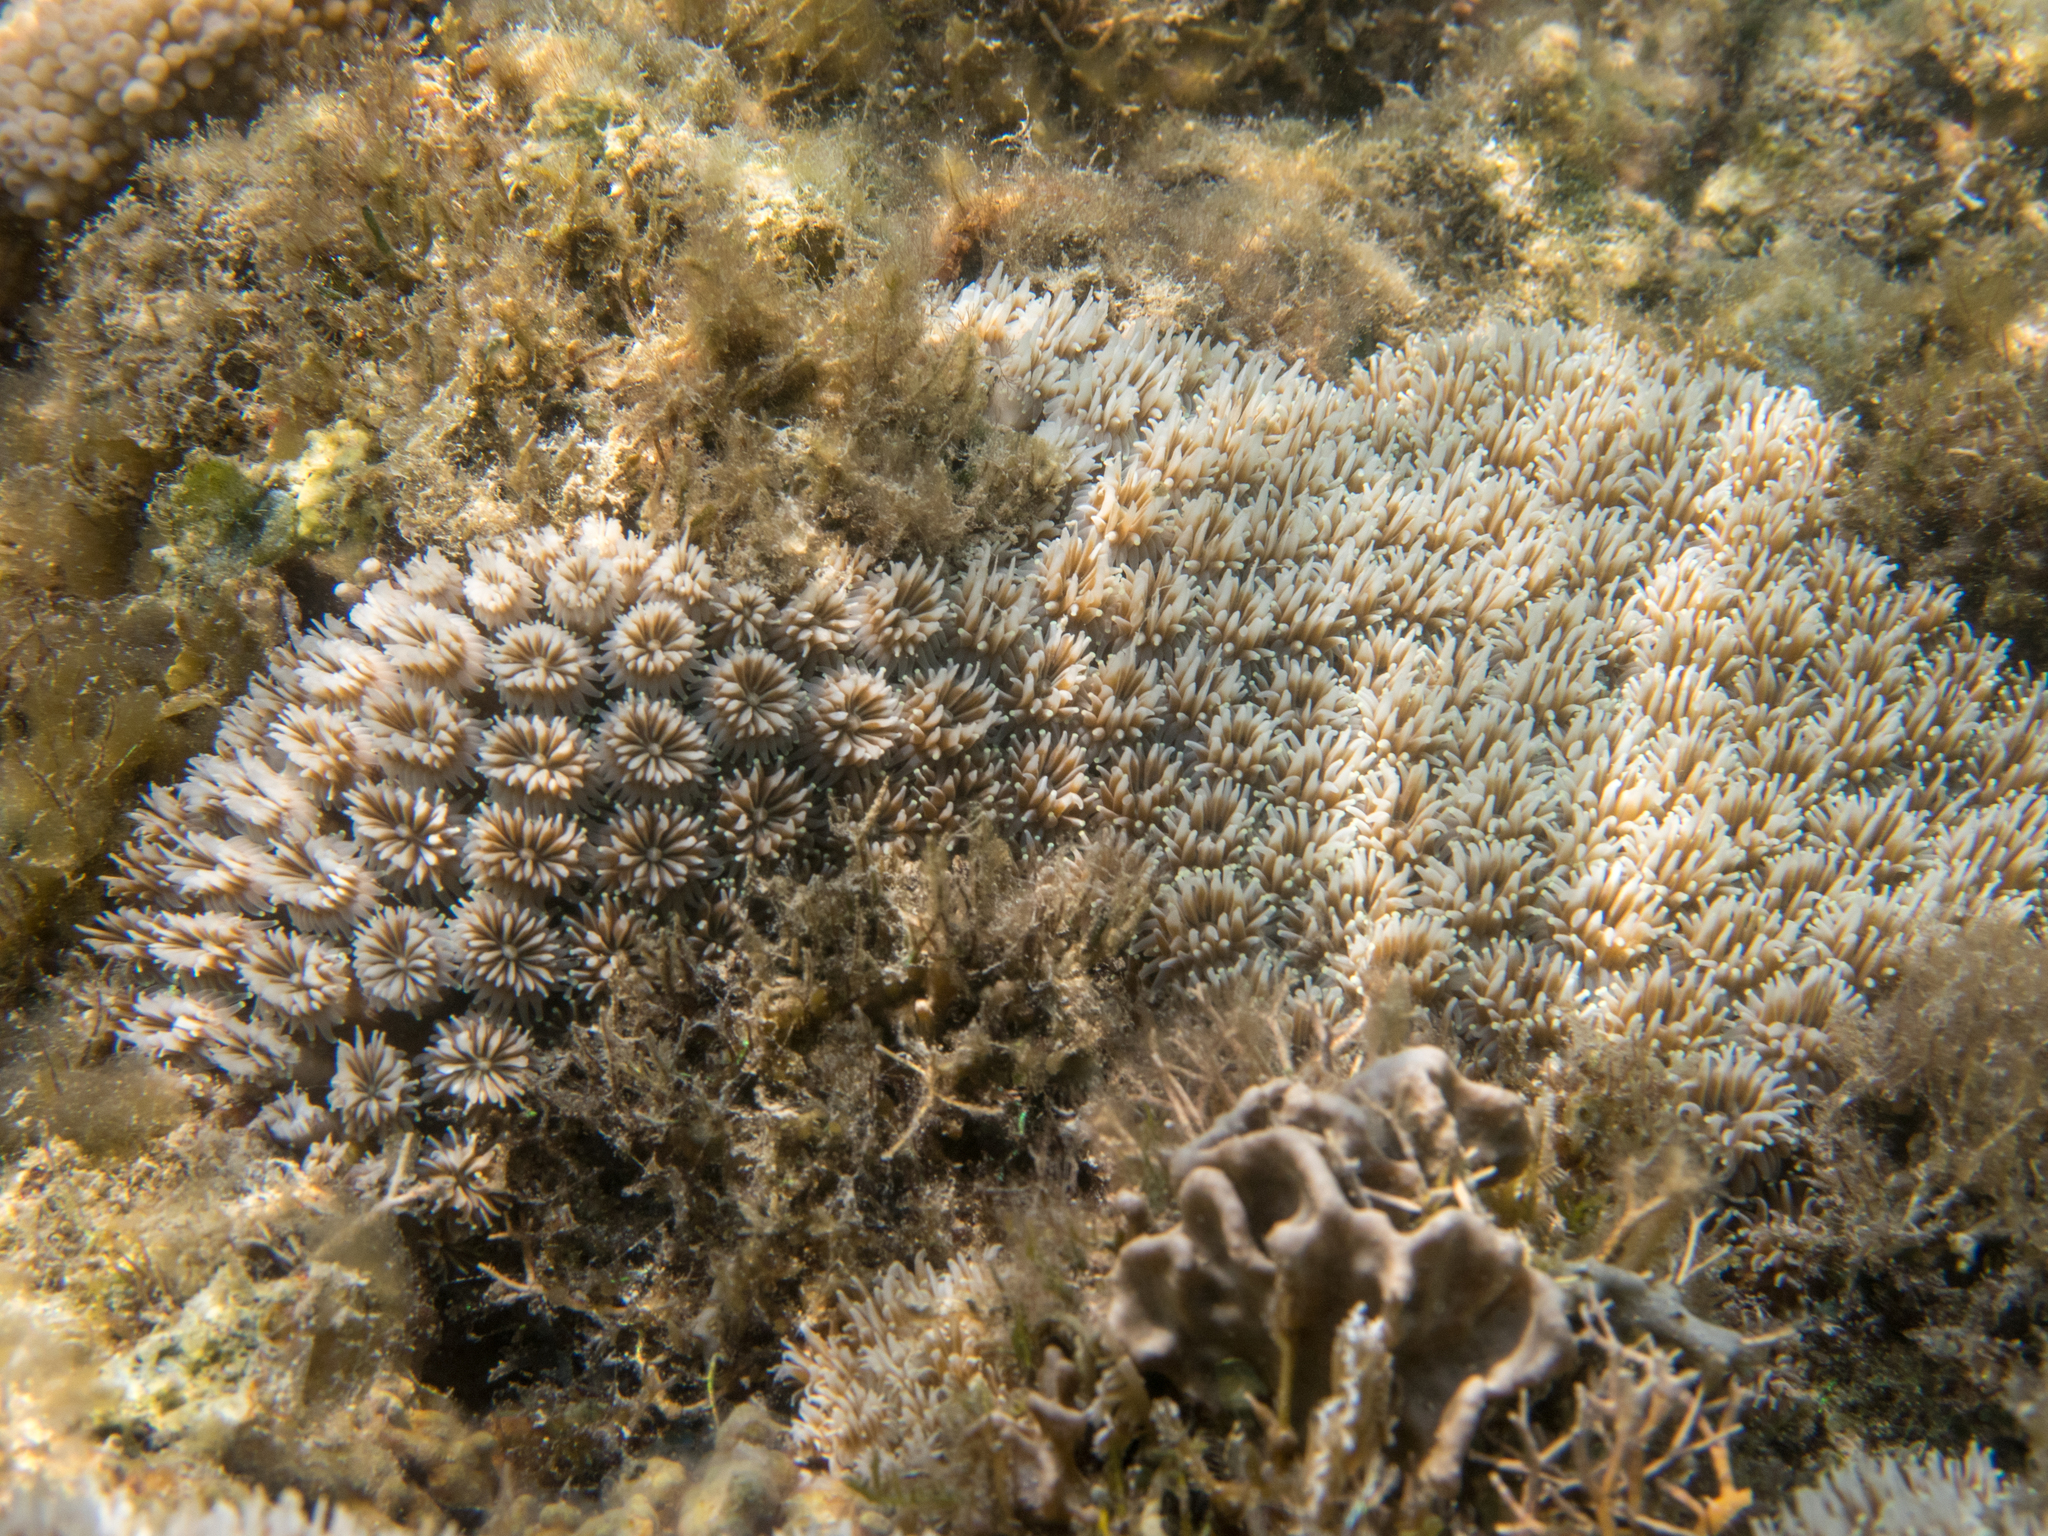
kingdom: Animalia
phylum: Cnidaria
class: Anthozoa
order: Scleractinia
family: Euphylliidae
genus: Galaxea
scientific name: Galaxea fascicularis
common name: Octopus coral
